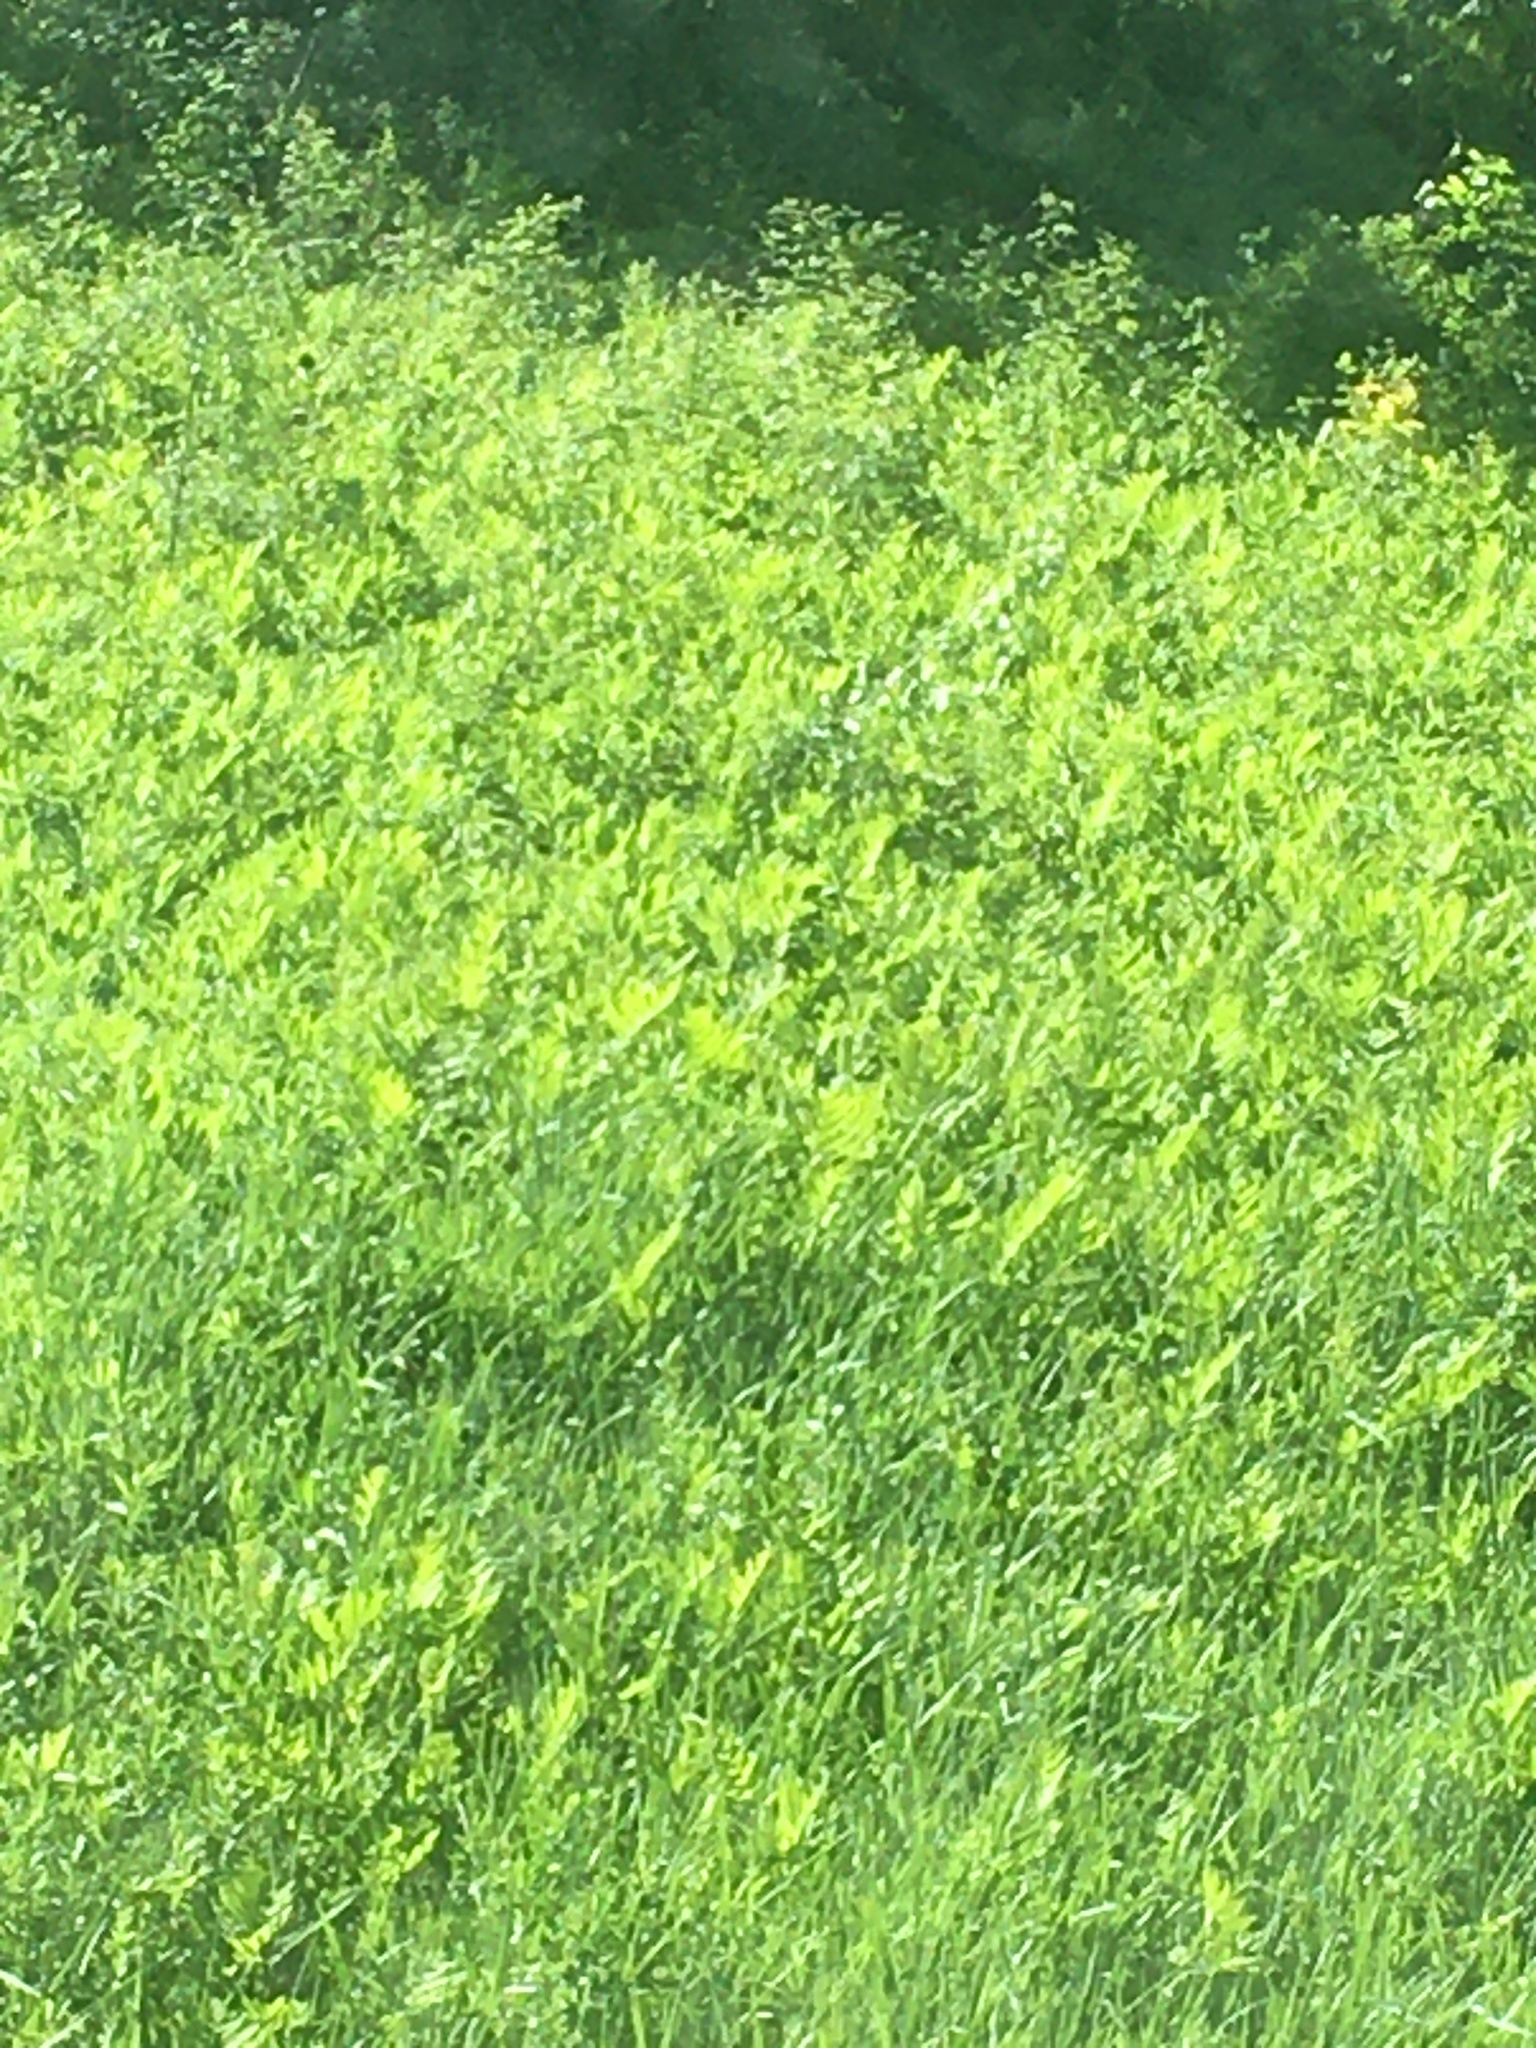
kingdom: Plantae
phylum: Tracheophyta
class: Polypodiopsida
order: Polypodiales
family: Onocleaceae
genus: Onoclea
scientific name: Onoclea sensibilis
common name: Sensitive fern
